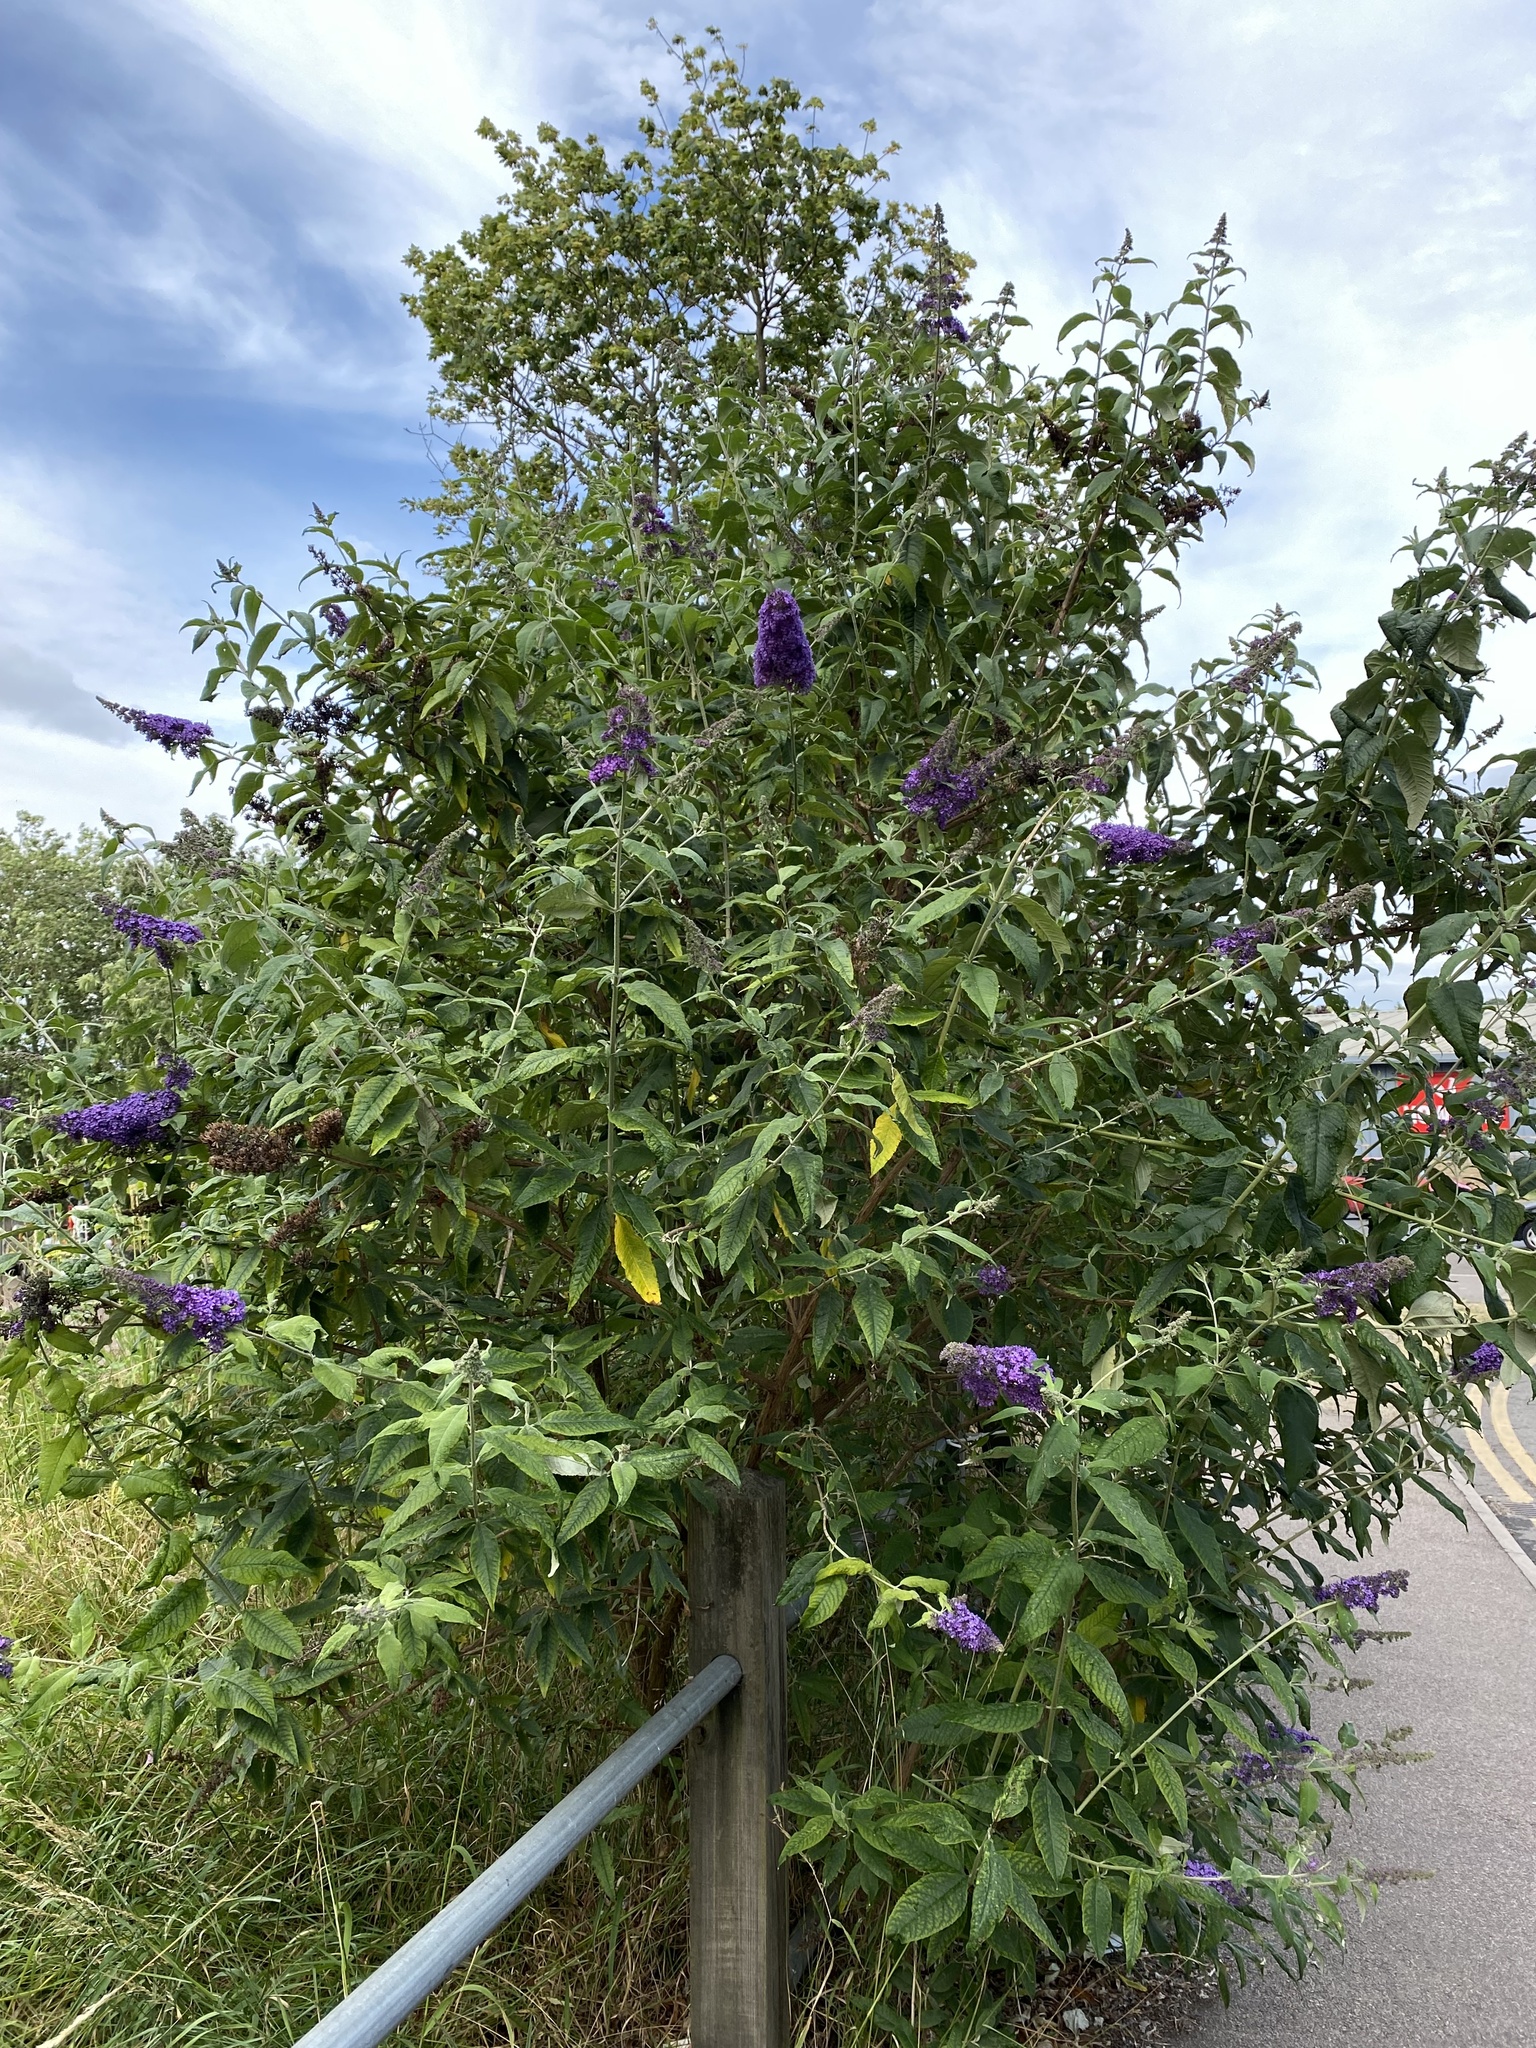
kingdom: Plantae
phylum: Tracheophyta
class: Magnoliopsida
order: Lamiales
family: Scrophulariaceae
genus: Buddleja
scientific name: Buddleja davidii
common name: Butterfly-bush
